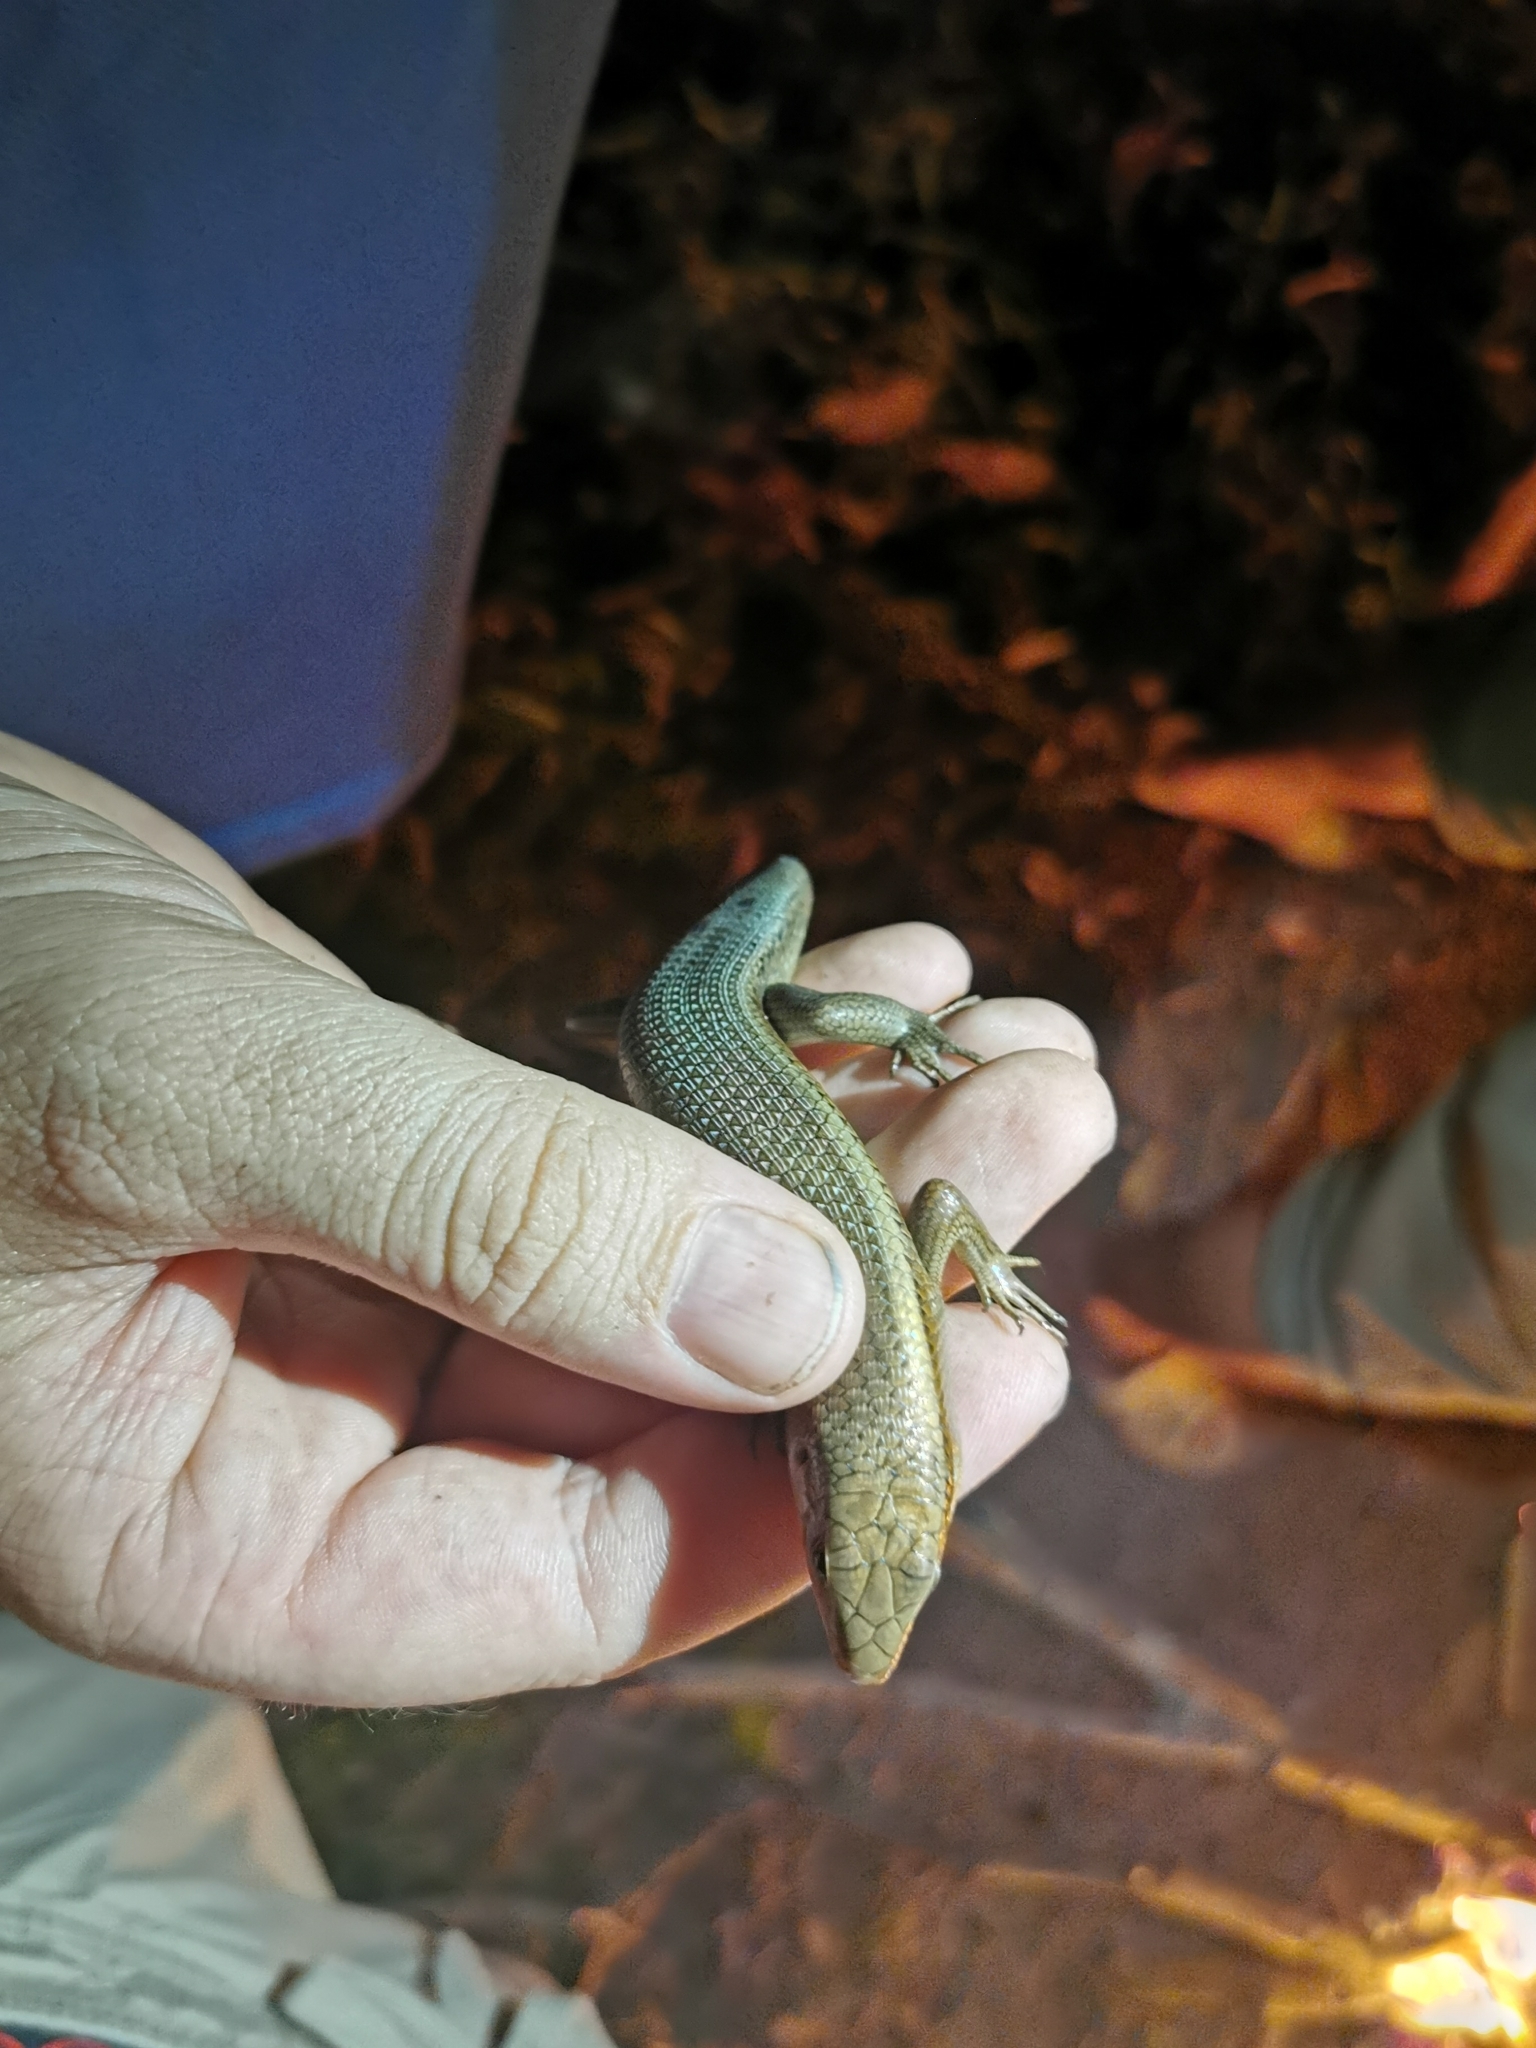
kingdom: Animalia
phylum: Chordata
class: Squamata
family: Scincidae
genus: Eutropis
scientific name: Eutropis multifasciata
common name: Common mabuya
